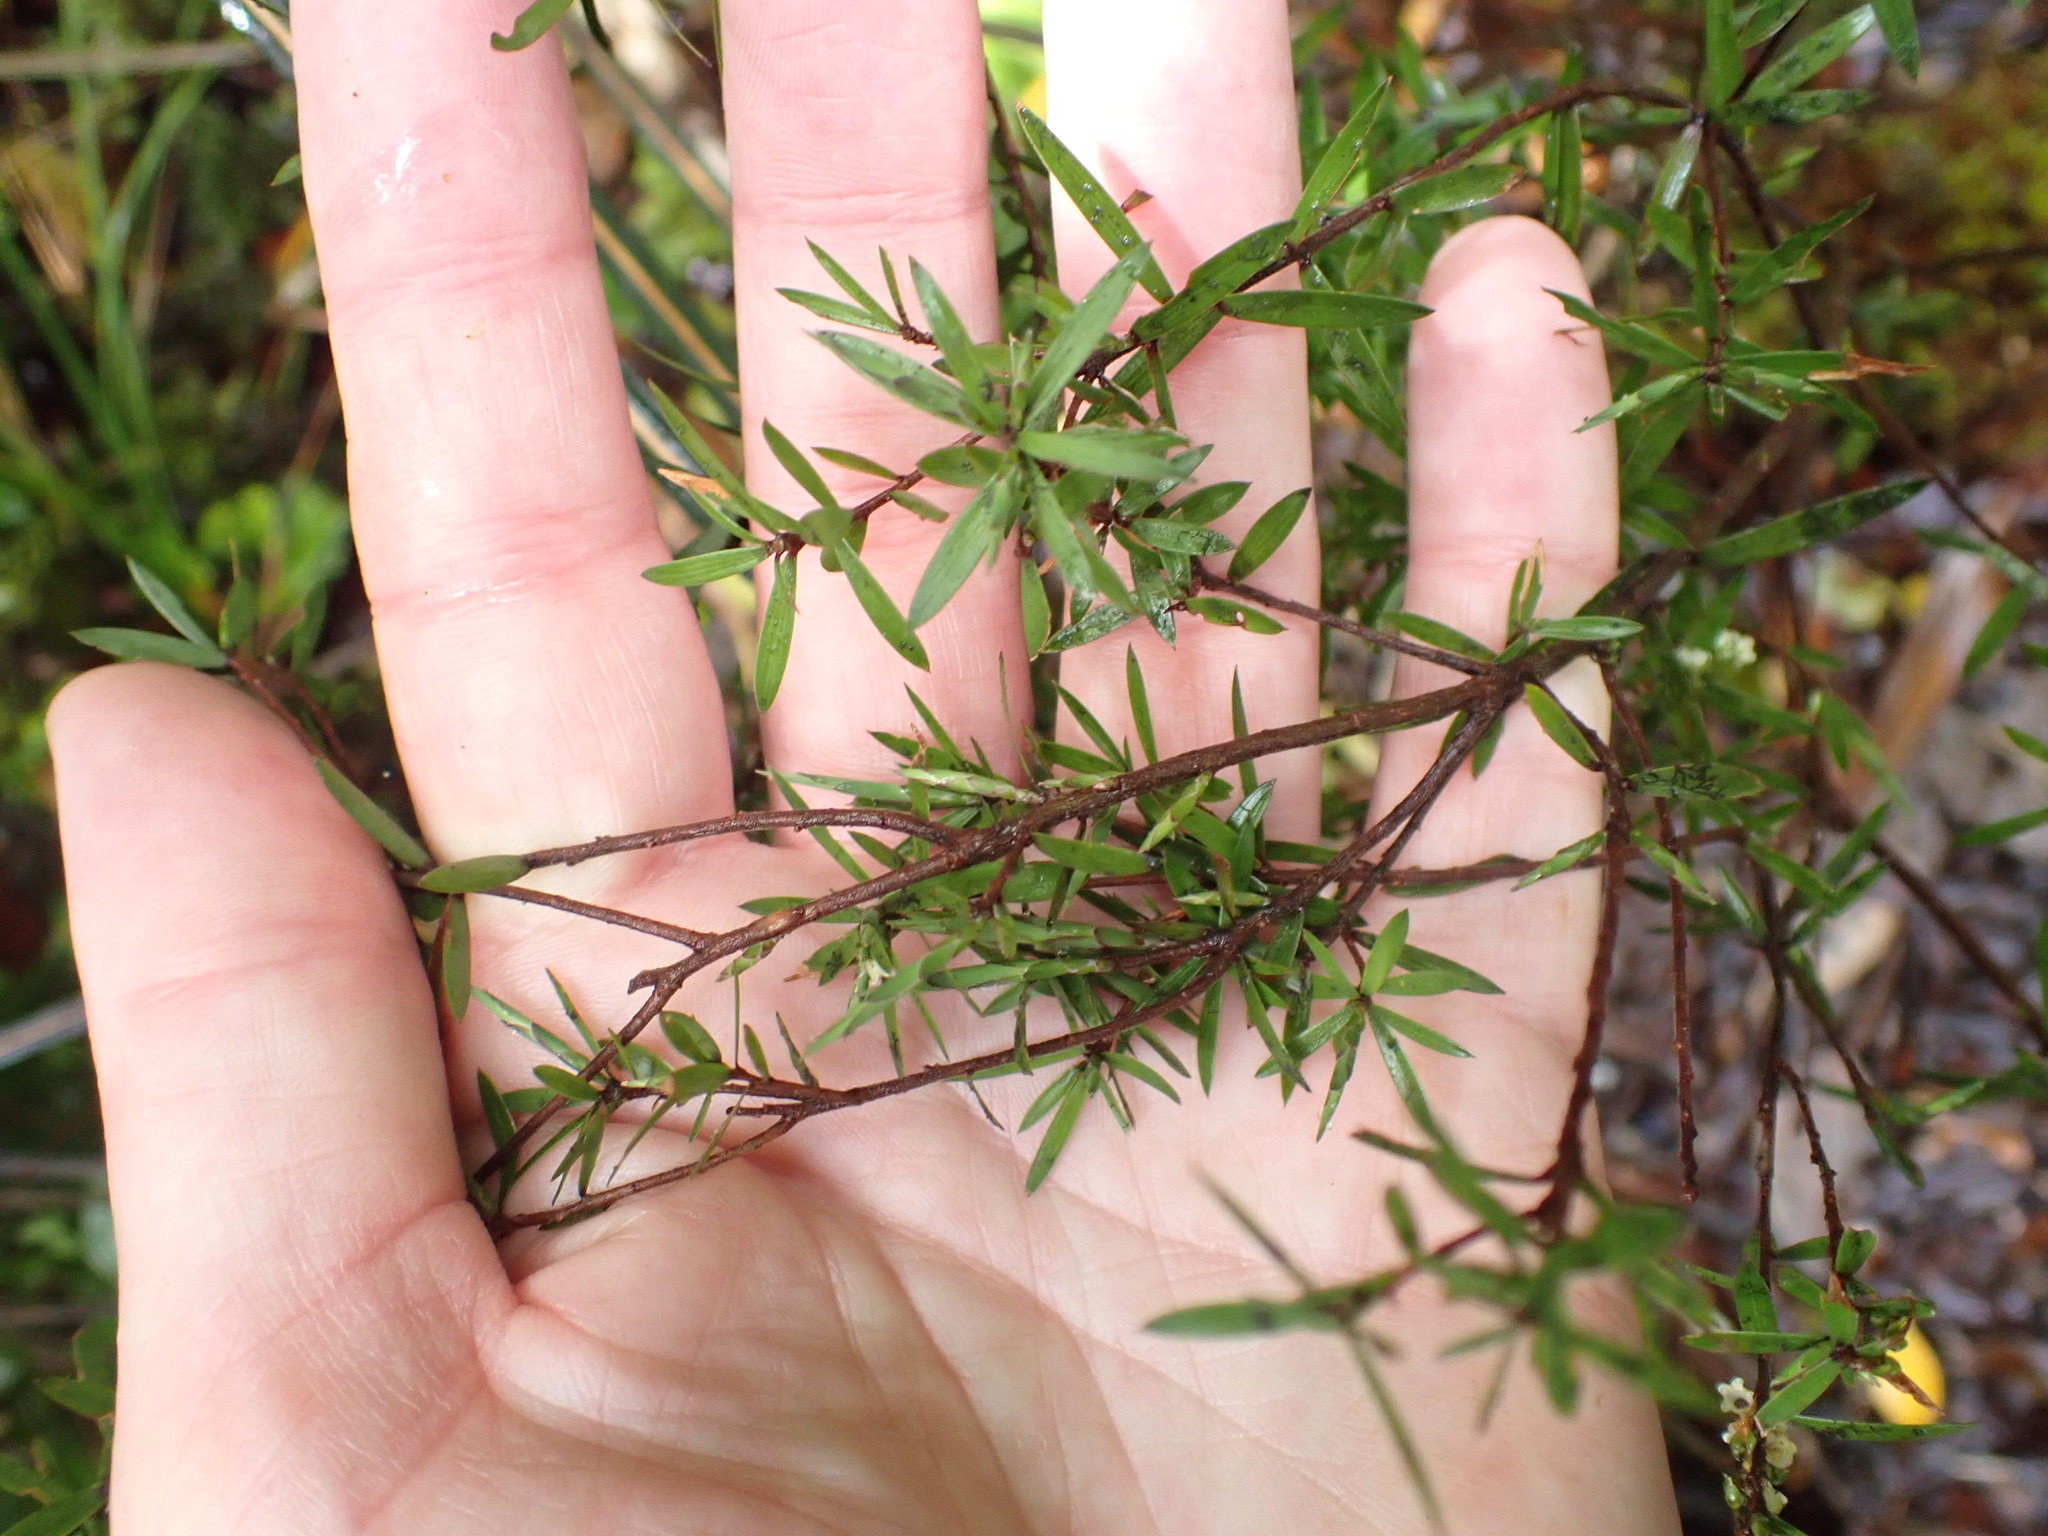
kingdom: Plantae
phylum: Tracheophyta
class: Magnoliopsida
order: Ericales
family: Ericaceae
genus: Leucopogon
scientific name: Leucopogon fasciculatus
